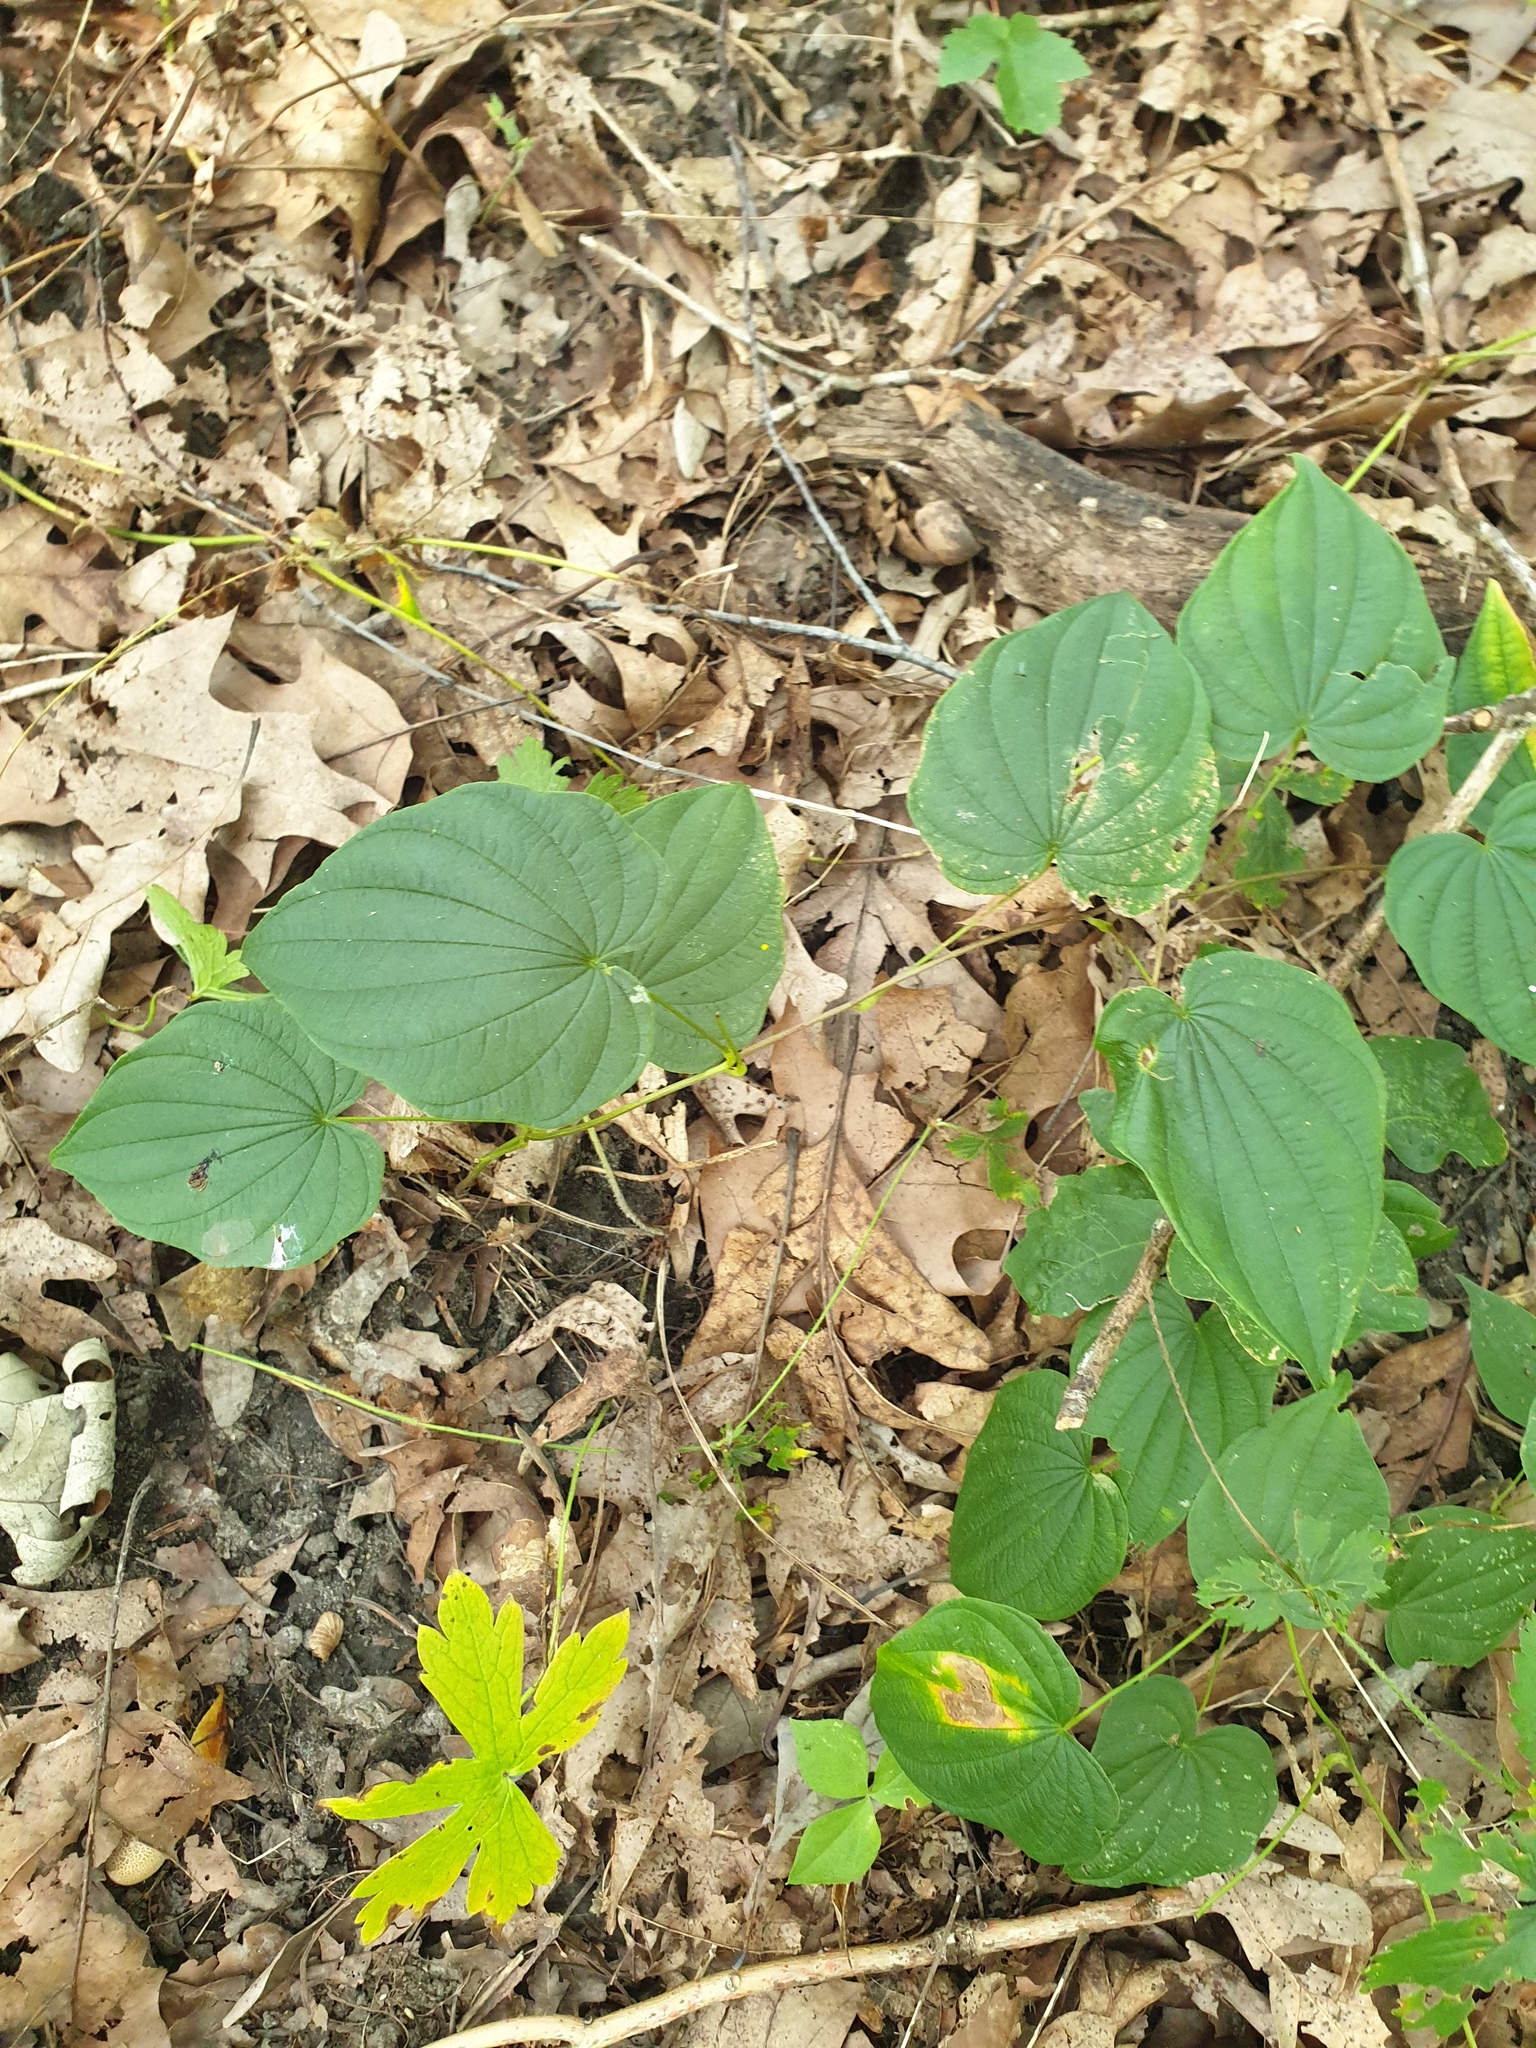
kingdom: Plantae
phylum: Tracheophyta
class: Liliopsida
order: Dioscoreales
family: Dioscoreaceae
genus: Dioscorea
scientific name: Dioscorea villosa
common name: Wild yam
